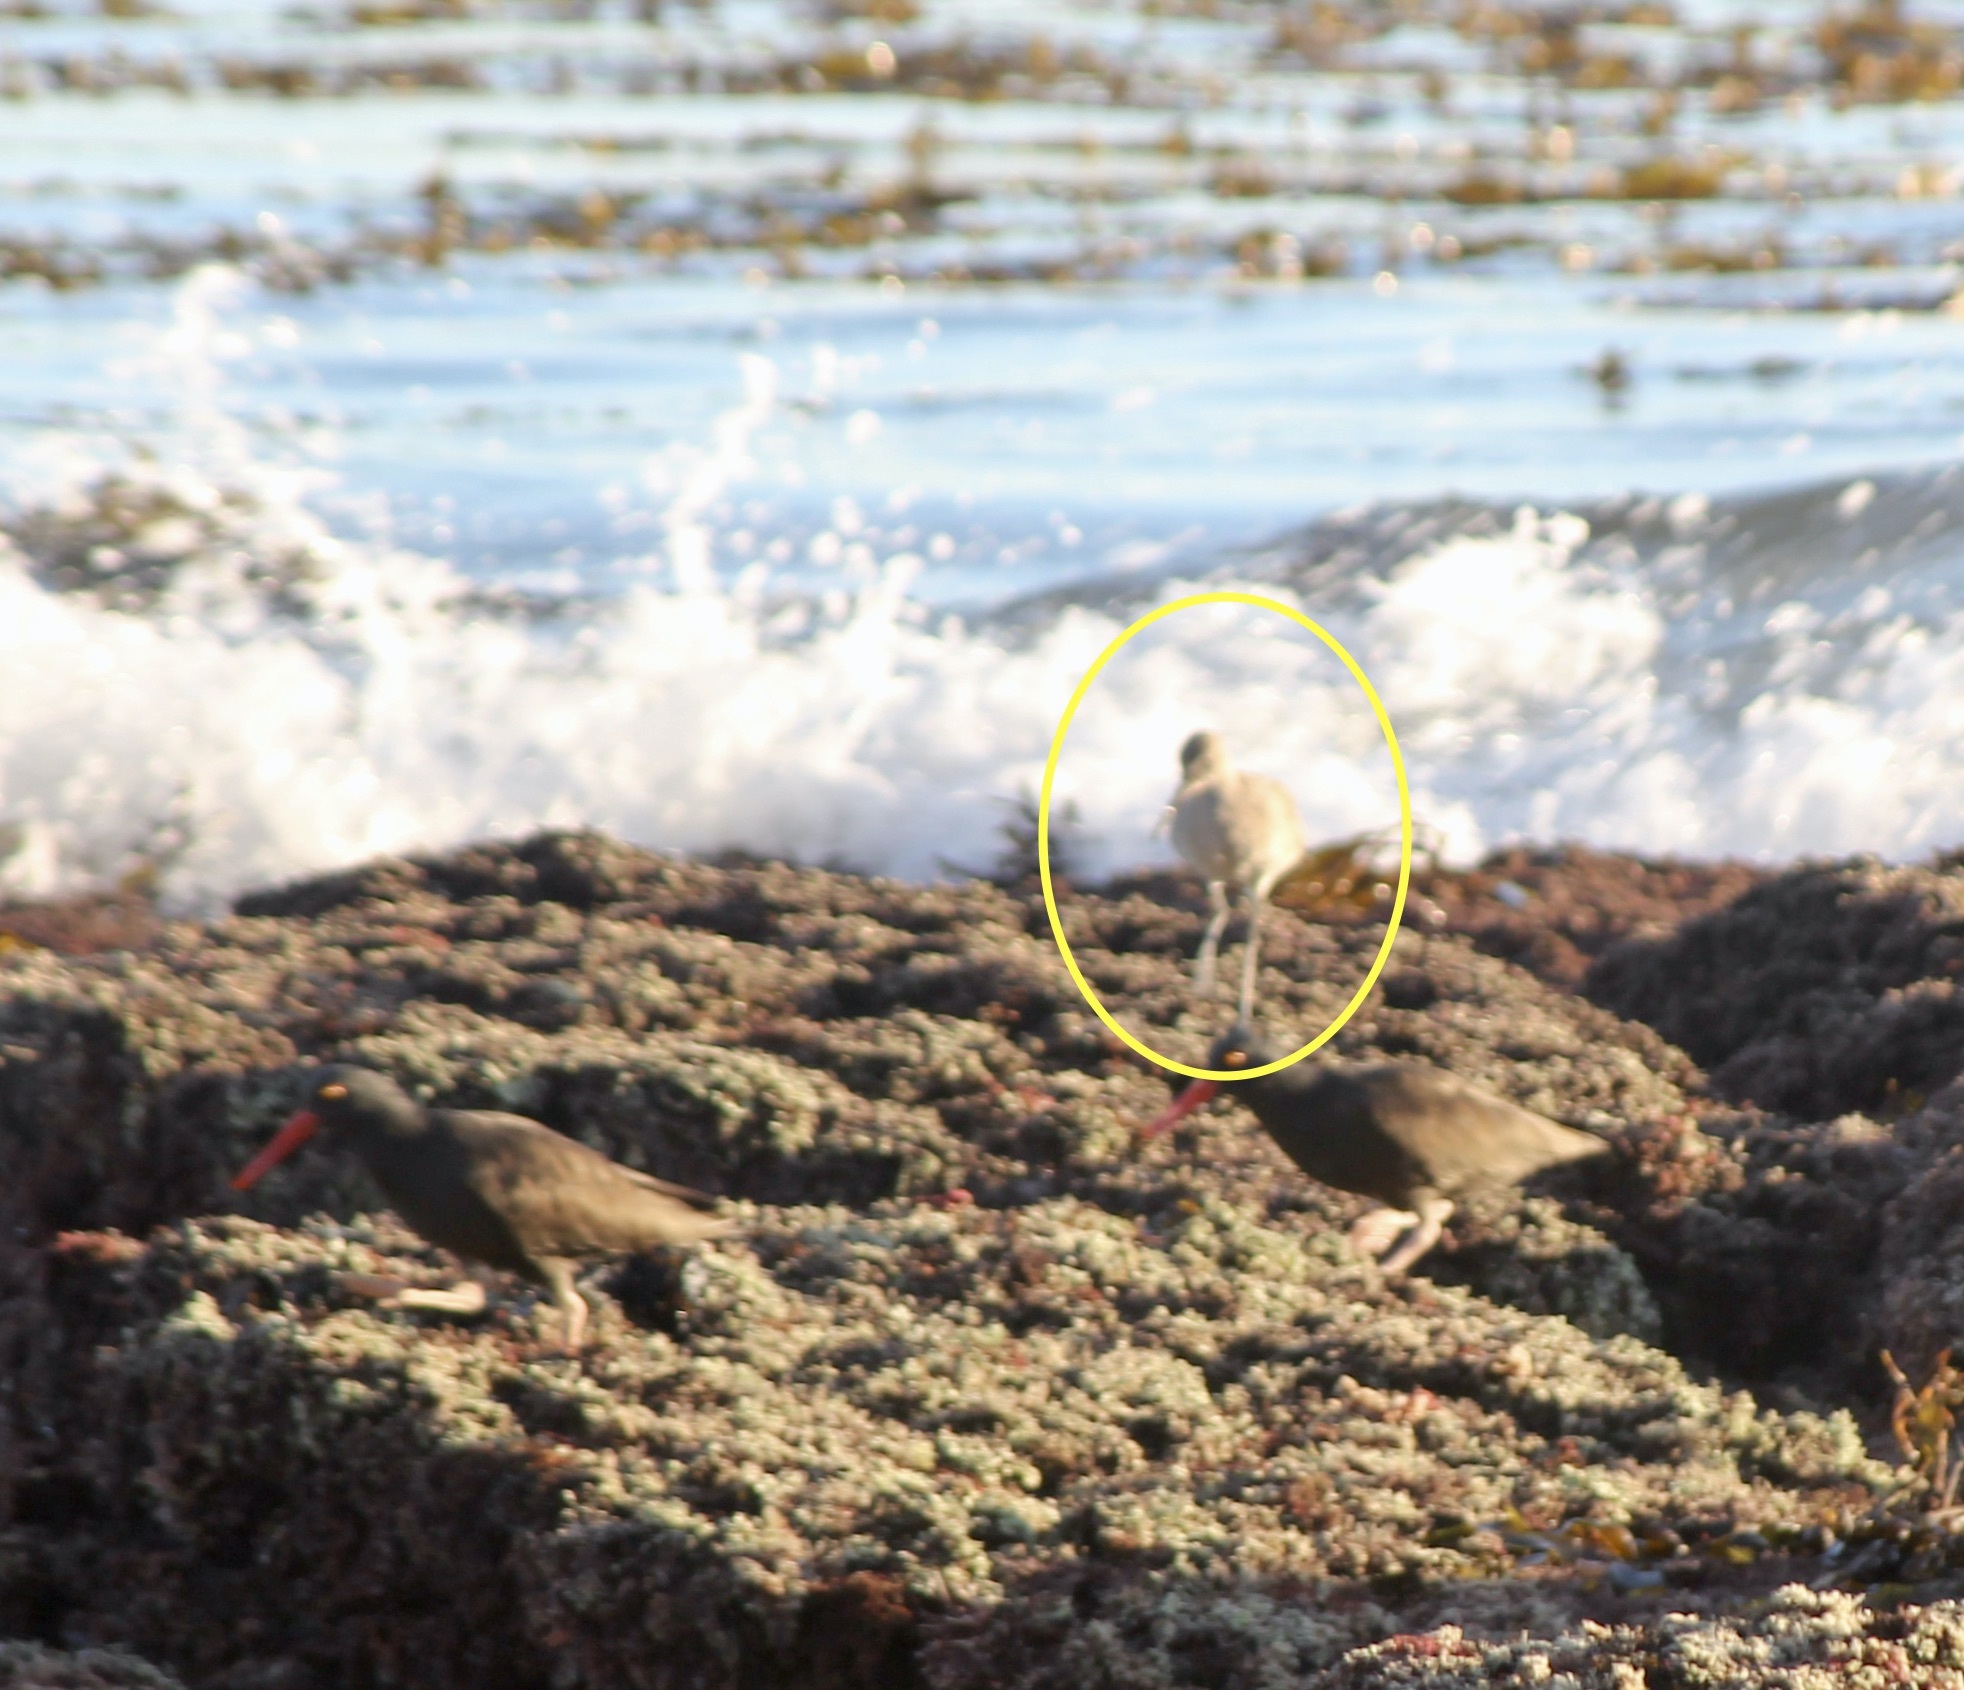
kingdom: Animalia
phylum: Chordata
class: Aves
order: Charadriiformes
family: Scolopacidae
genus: Tringa
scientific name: Tringa semipalmata
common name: Willet
